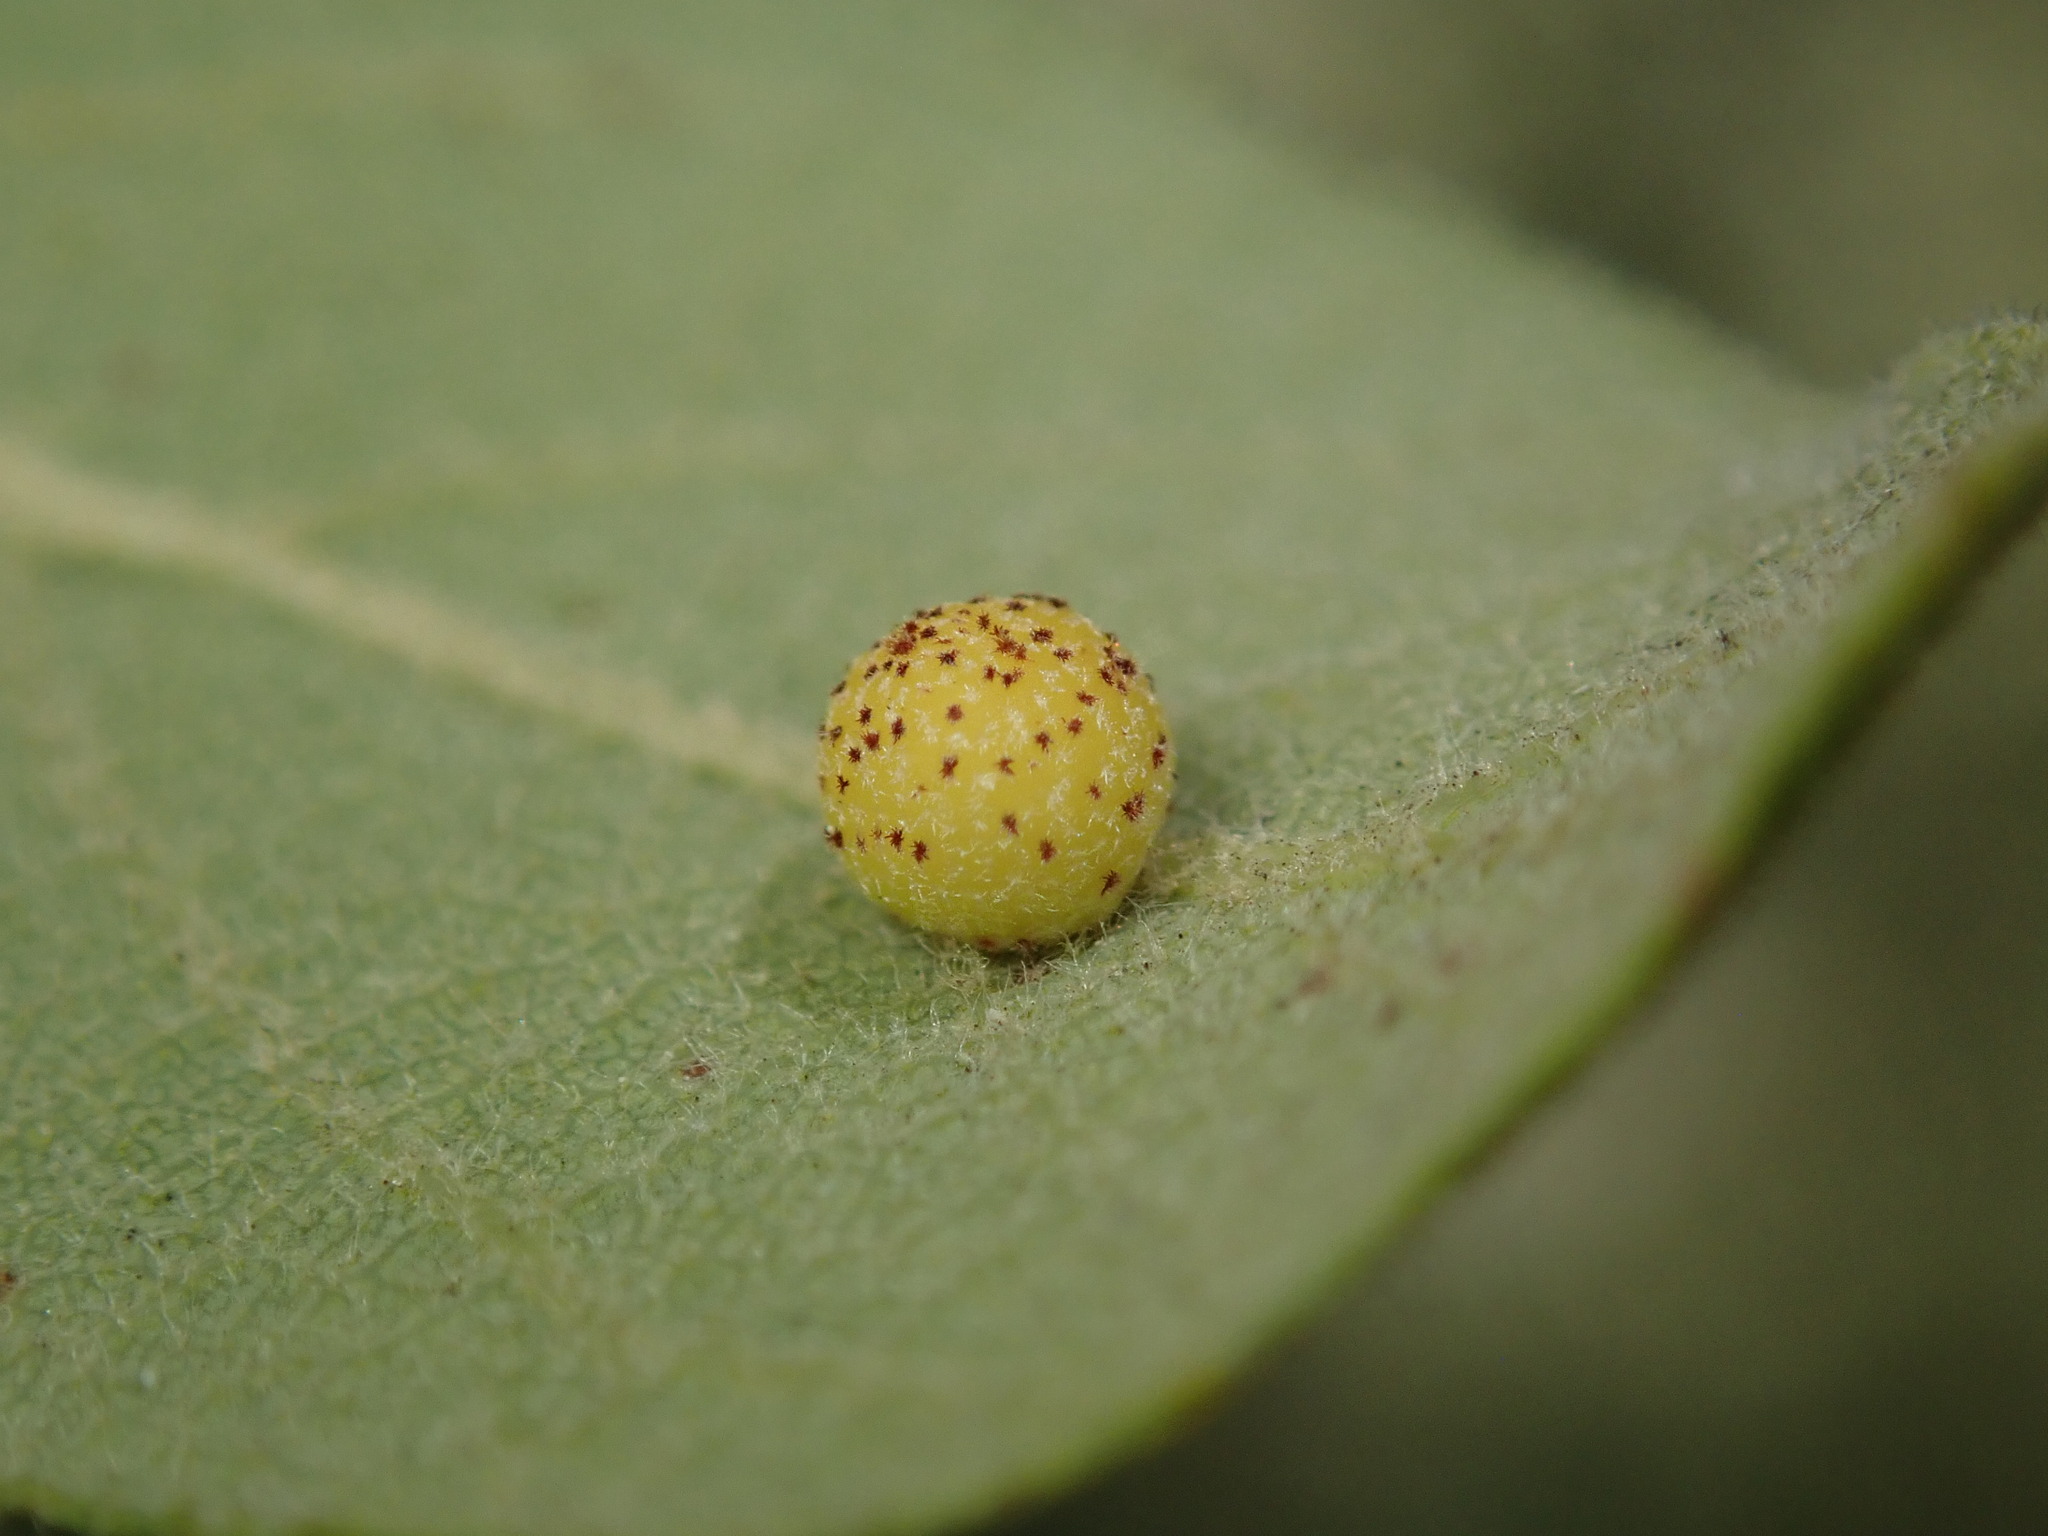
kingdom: Animalia
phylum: Arthropoda
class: Insecta
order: Hymenoptera
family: Cynipidae
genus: Cynips
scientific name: Cynips Antron tomkursari
